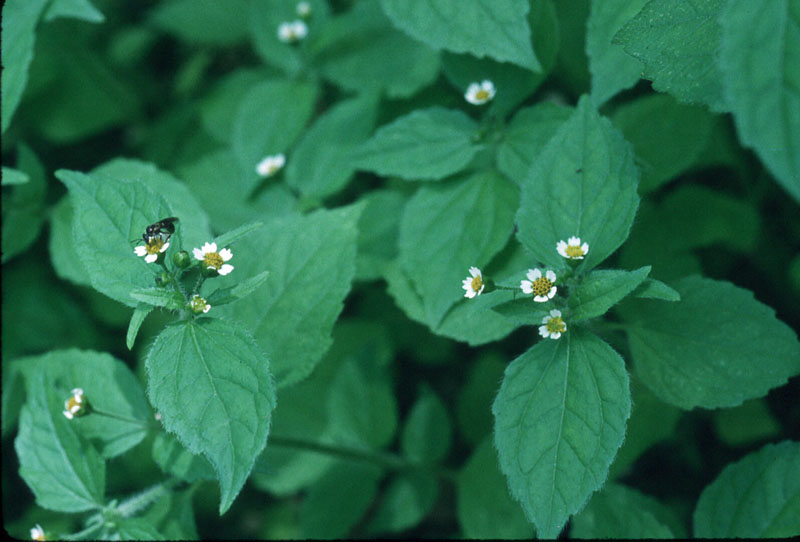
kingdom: Plantae
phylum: Tracheophyta
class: Magnoliopsida
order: Asterales
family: Asteraceae
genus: Galinsoga
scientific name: Galinsoga quadriradiata
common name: Shaggy soldier
